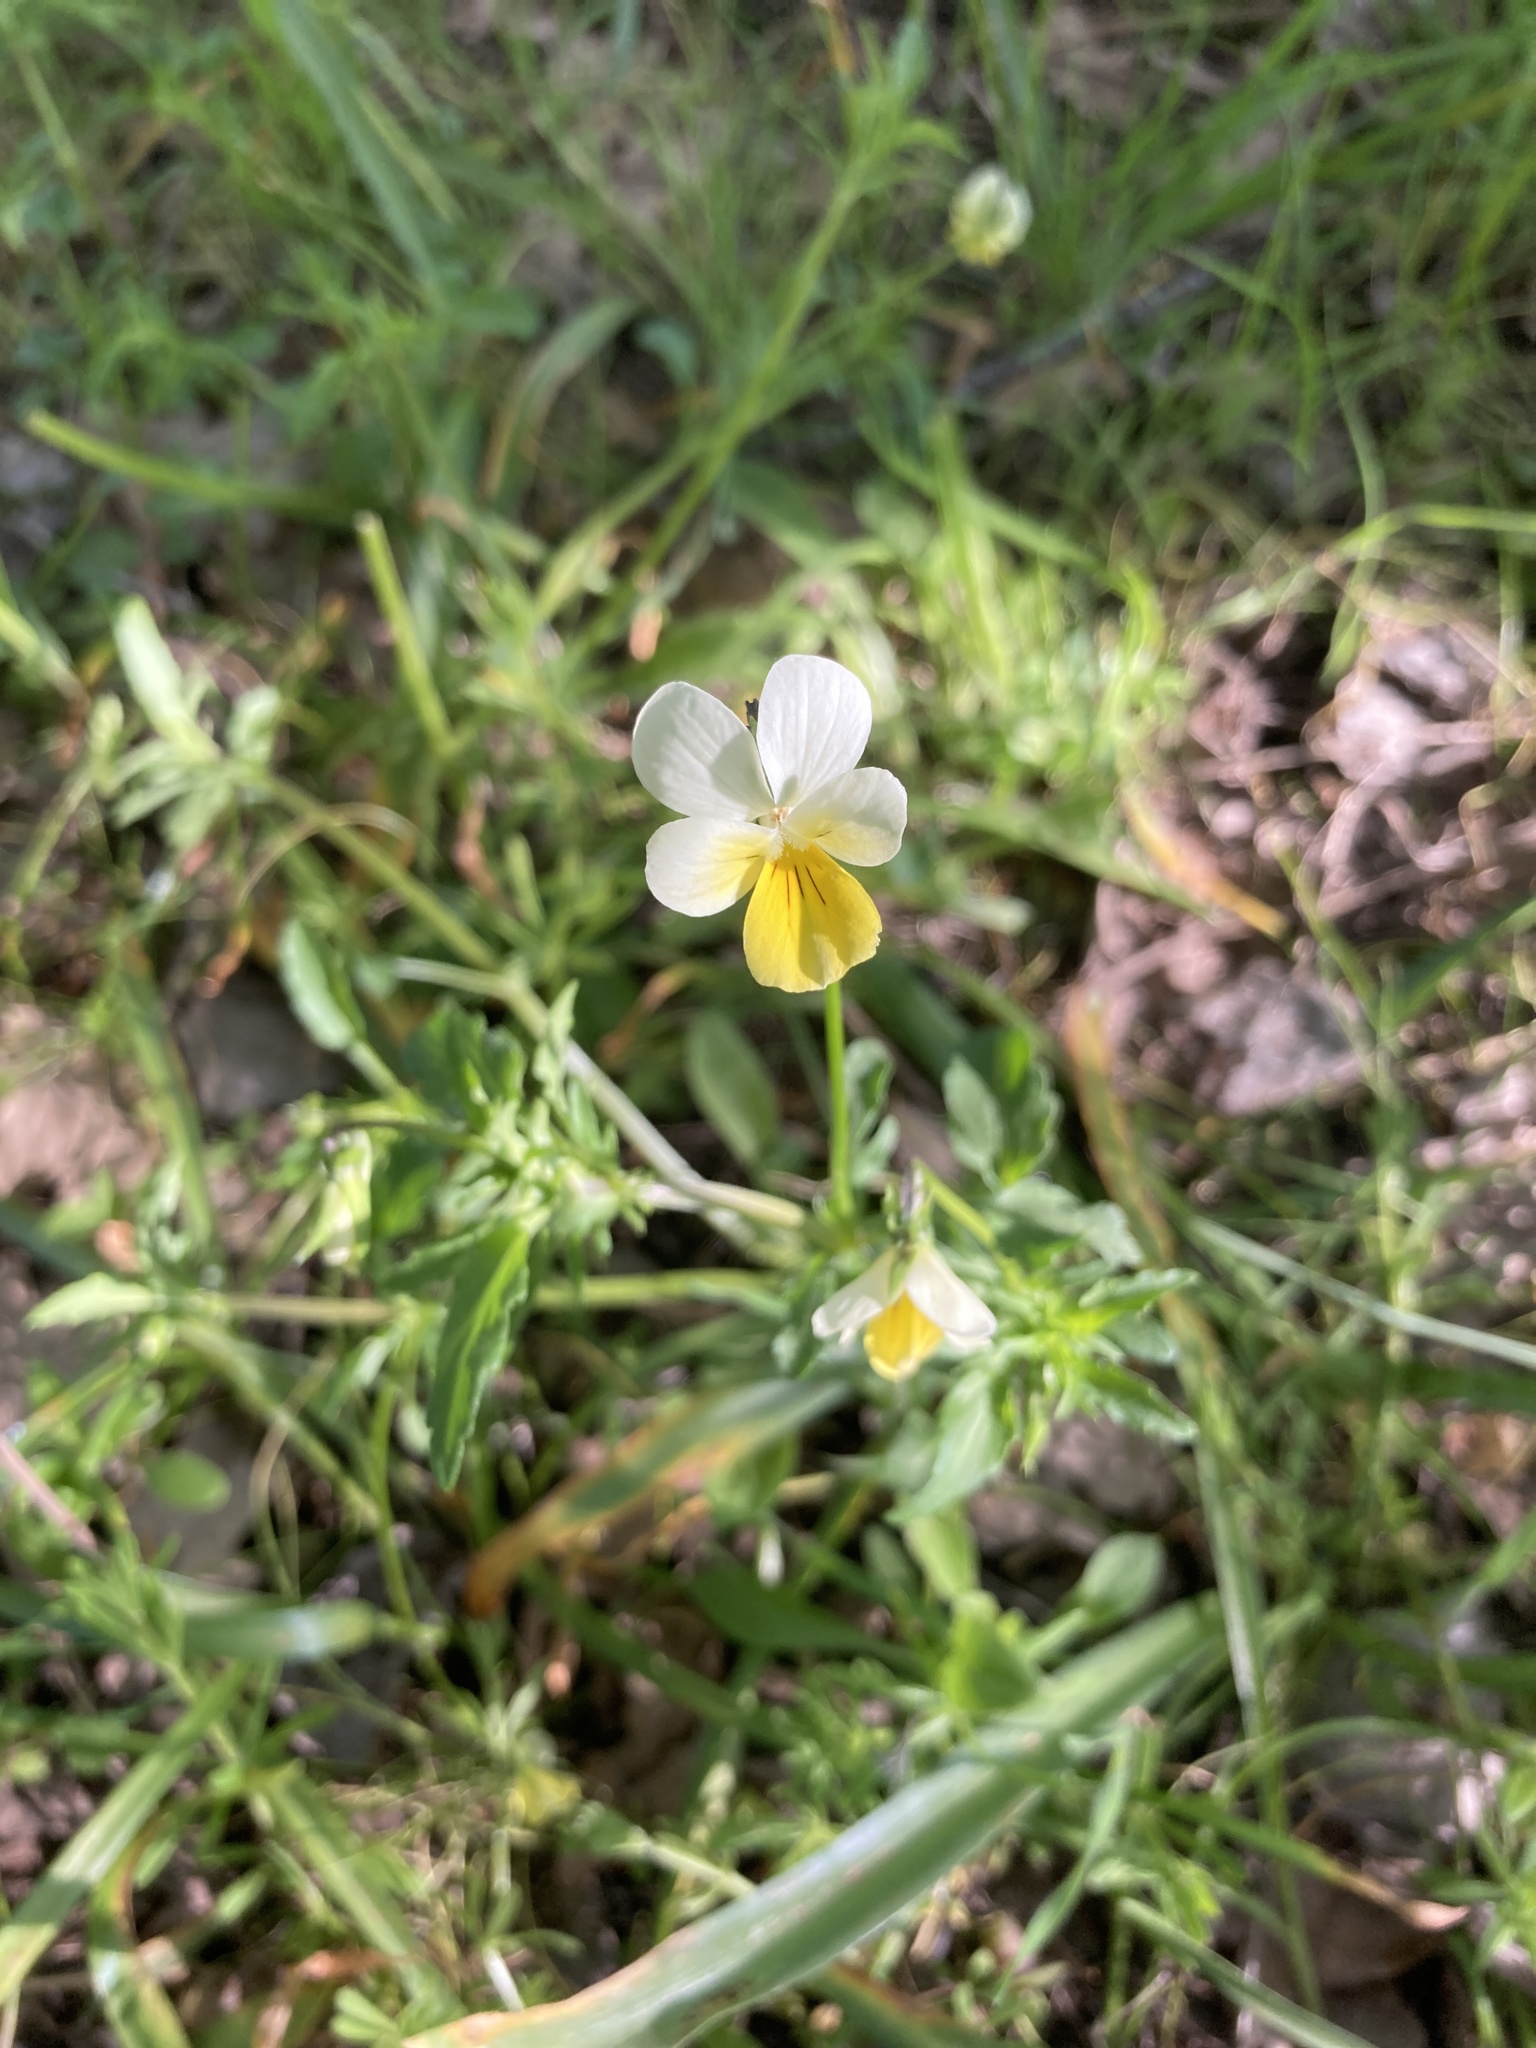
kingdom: Plantae
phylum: Tracheophyta
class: Magnoliopsida
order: Malpighiales
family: Violaceae
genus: Viola
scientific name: Viola arvensis
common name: Field pansy
